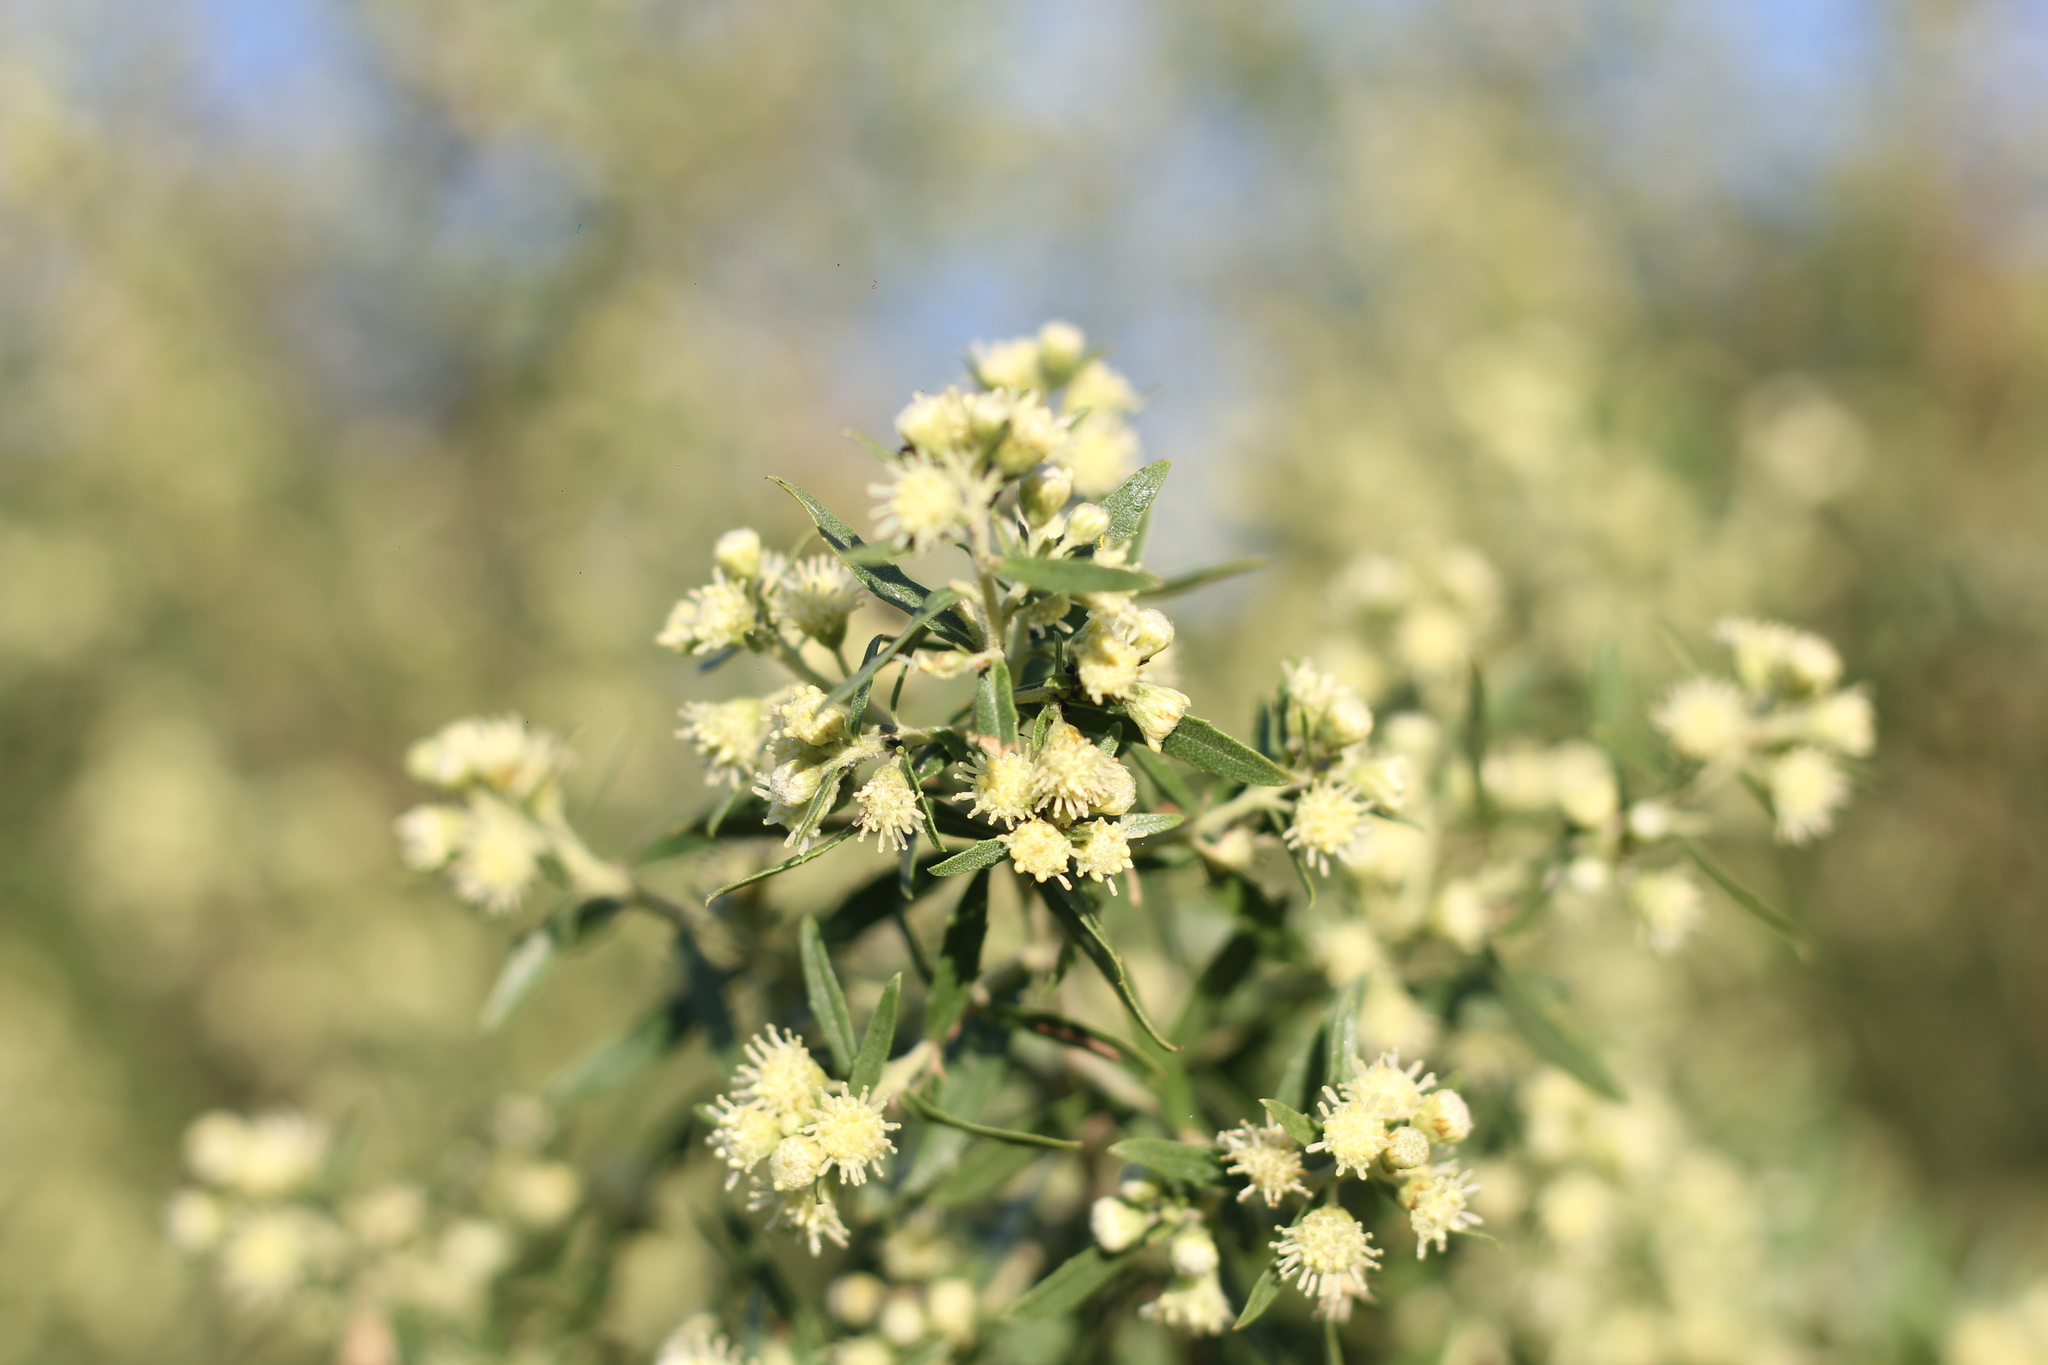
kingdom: Plantae
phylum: Tracheophyta
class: Magnoliopsida
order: Asterales
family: Asteraceae
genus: Baccharis
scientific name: Baccharis salicifolia
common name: Sticky baccharis
